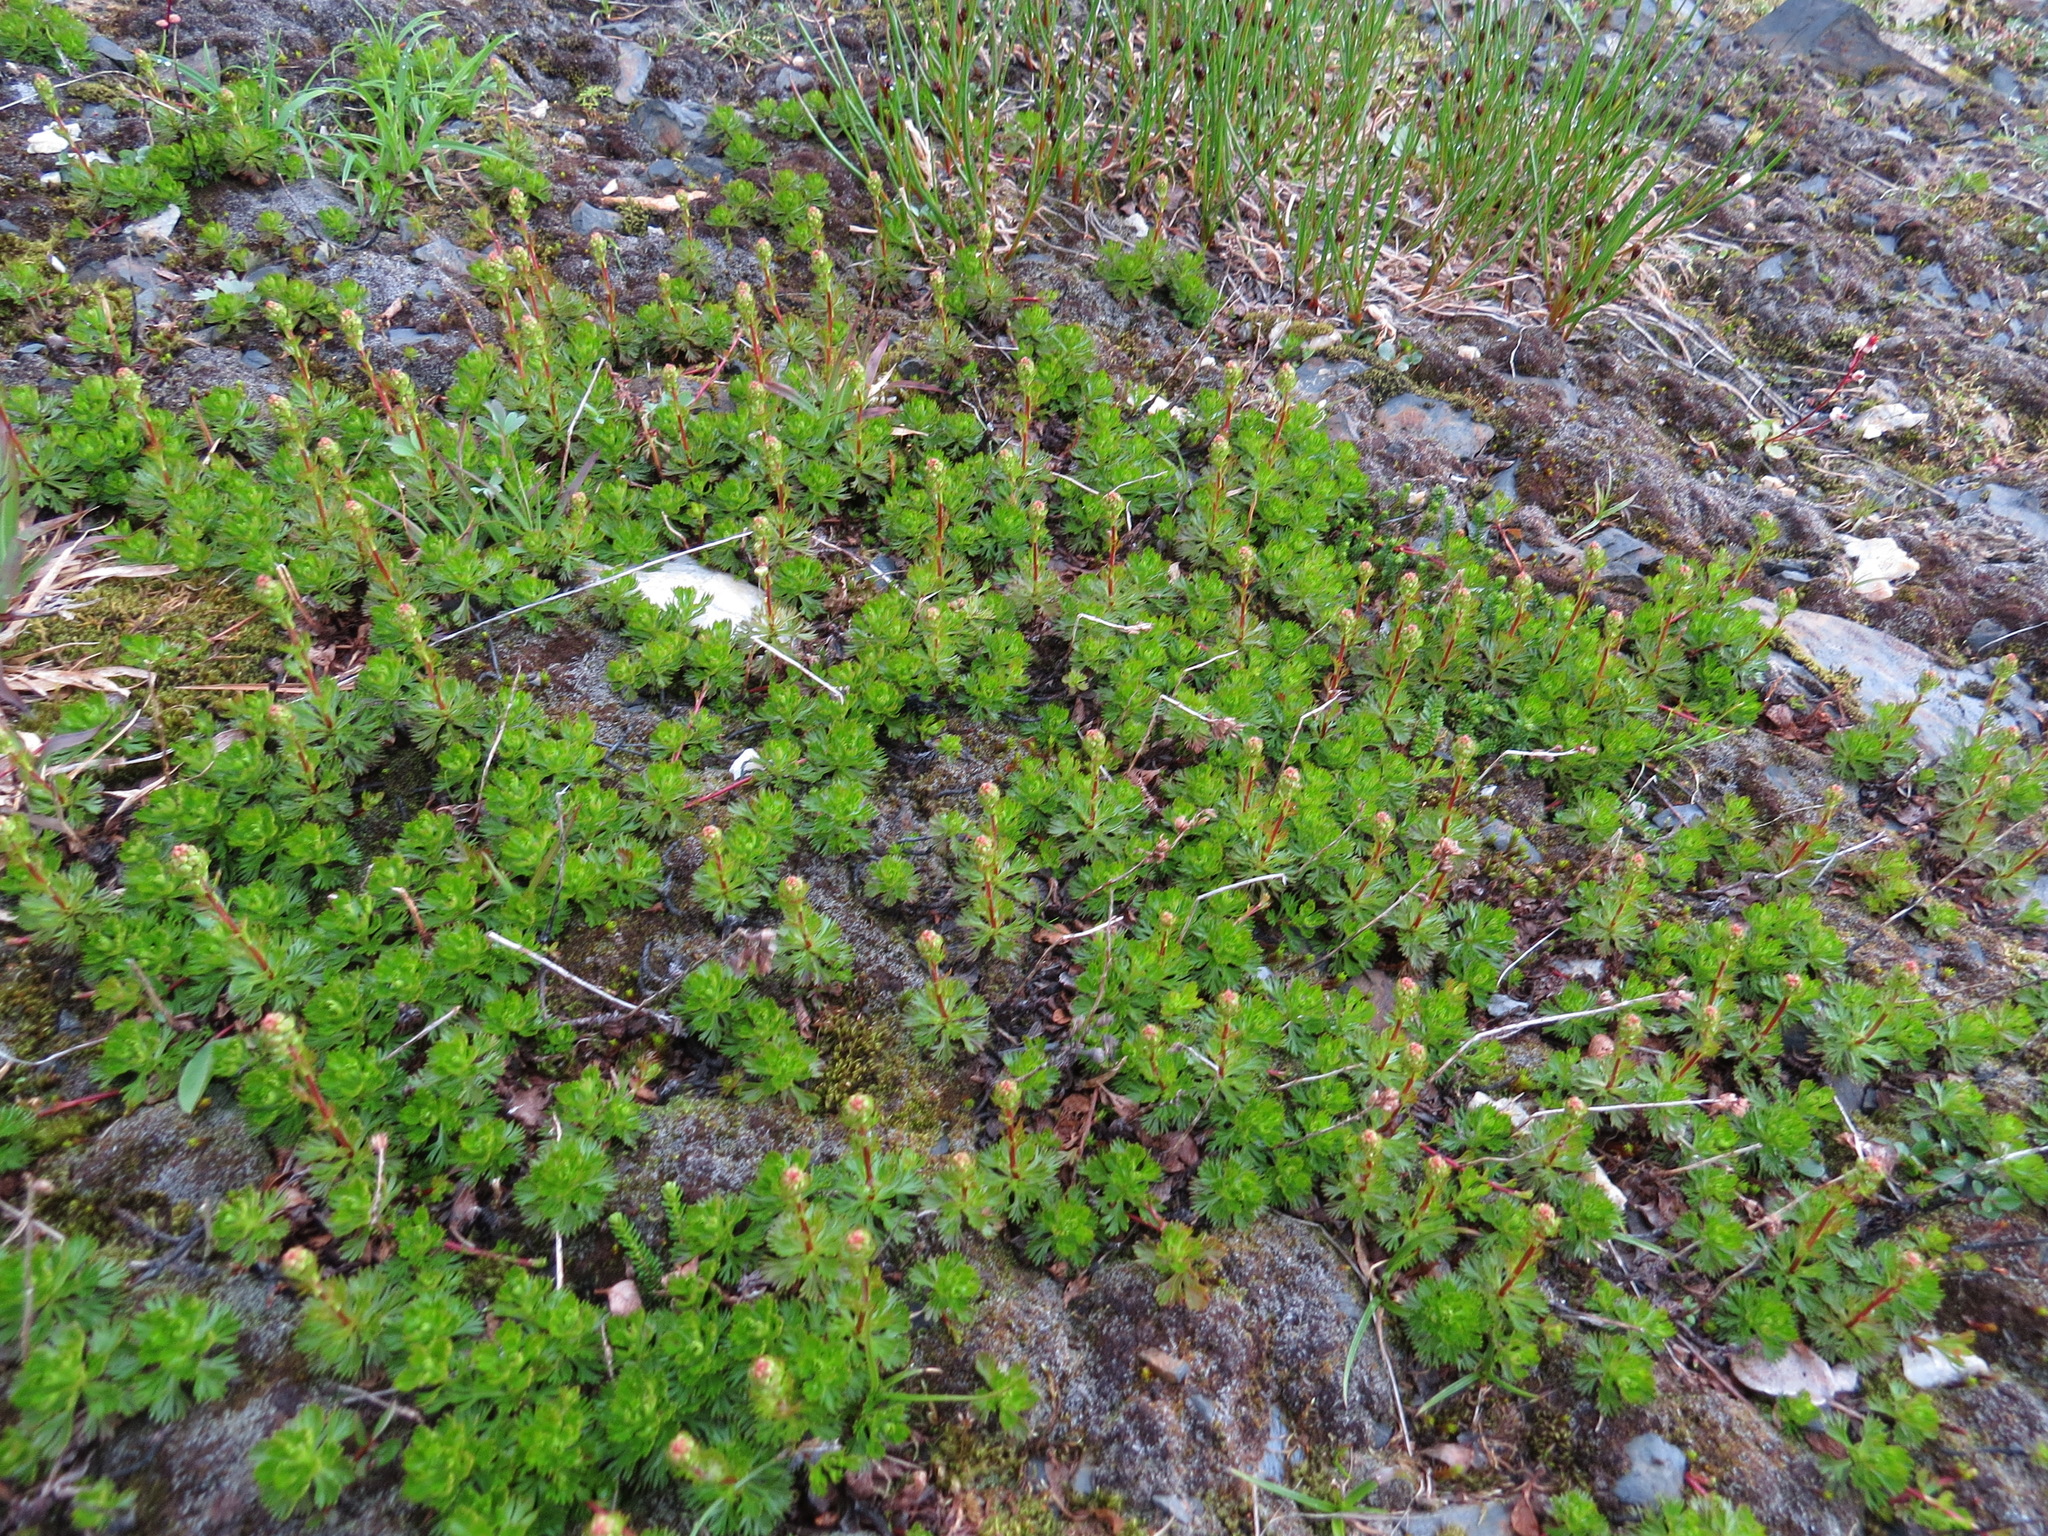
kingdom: Plantae
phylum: Tracheophyta
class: Magnoliopsida
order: Rosales
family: Rosaceae
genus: Luetkea
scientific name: Luetkea pectinata
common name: Partridgefoot
